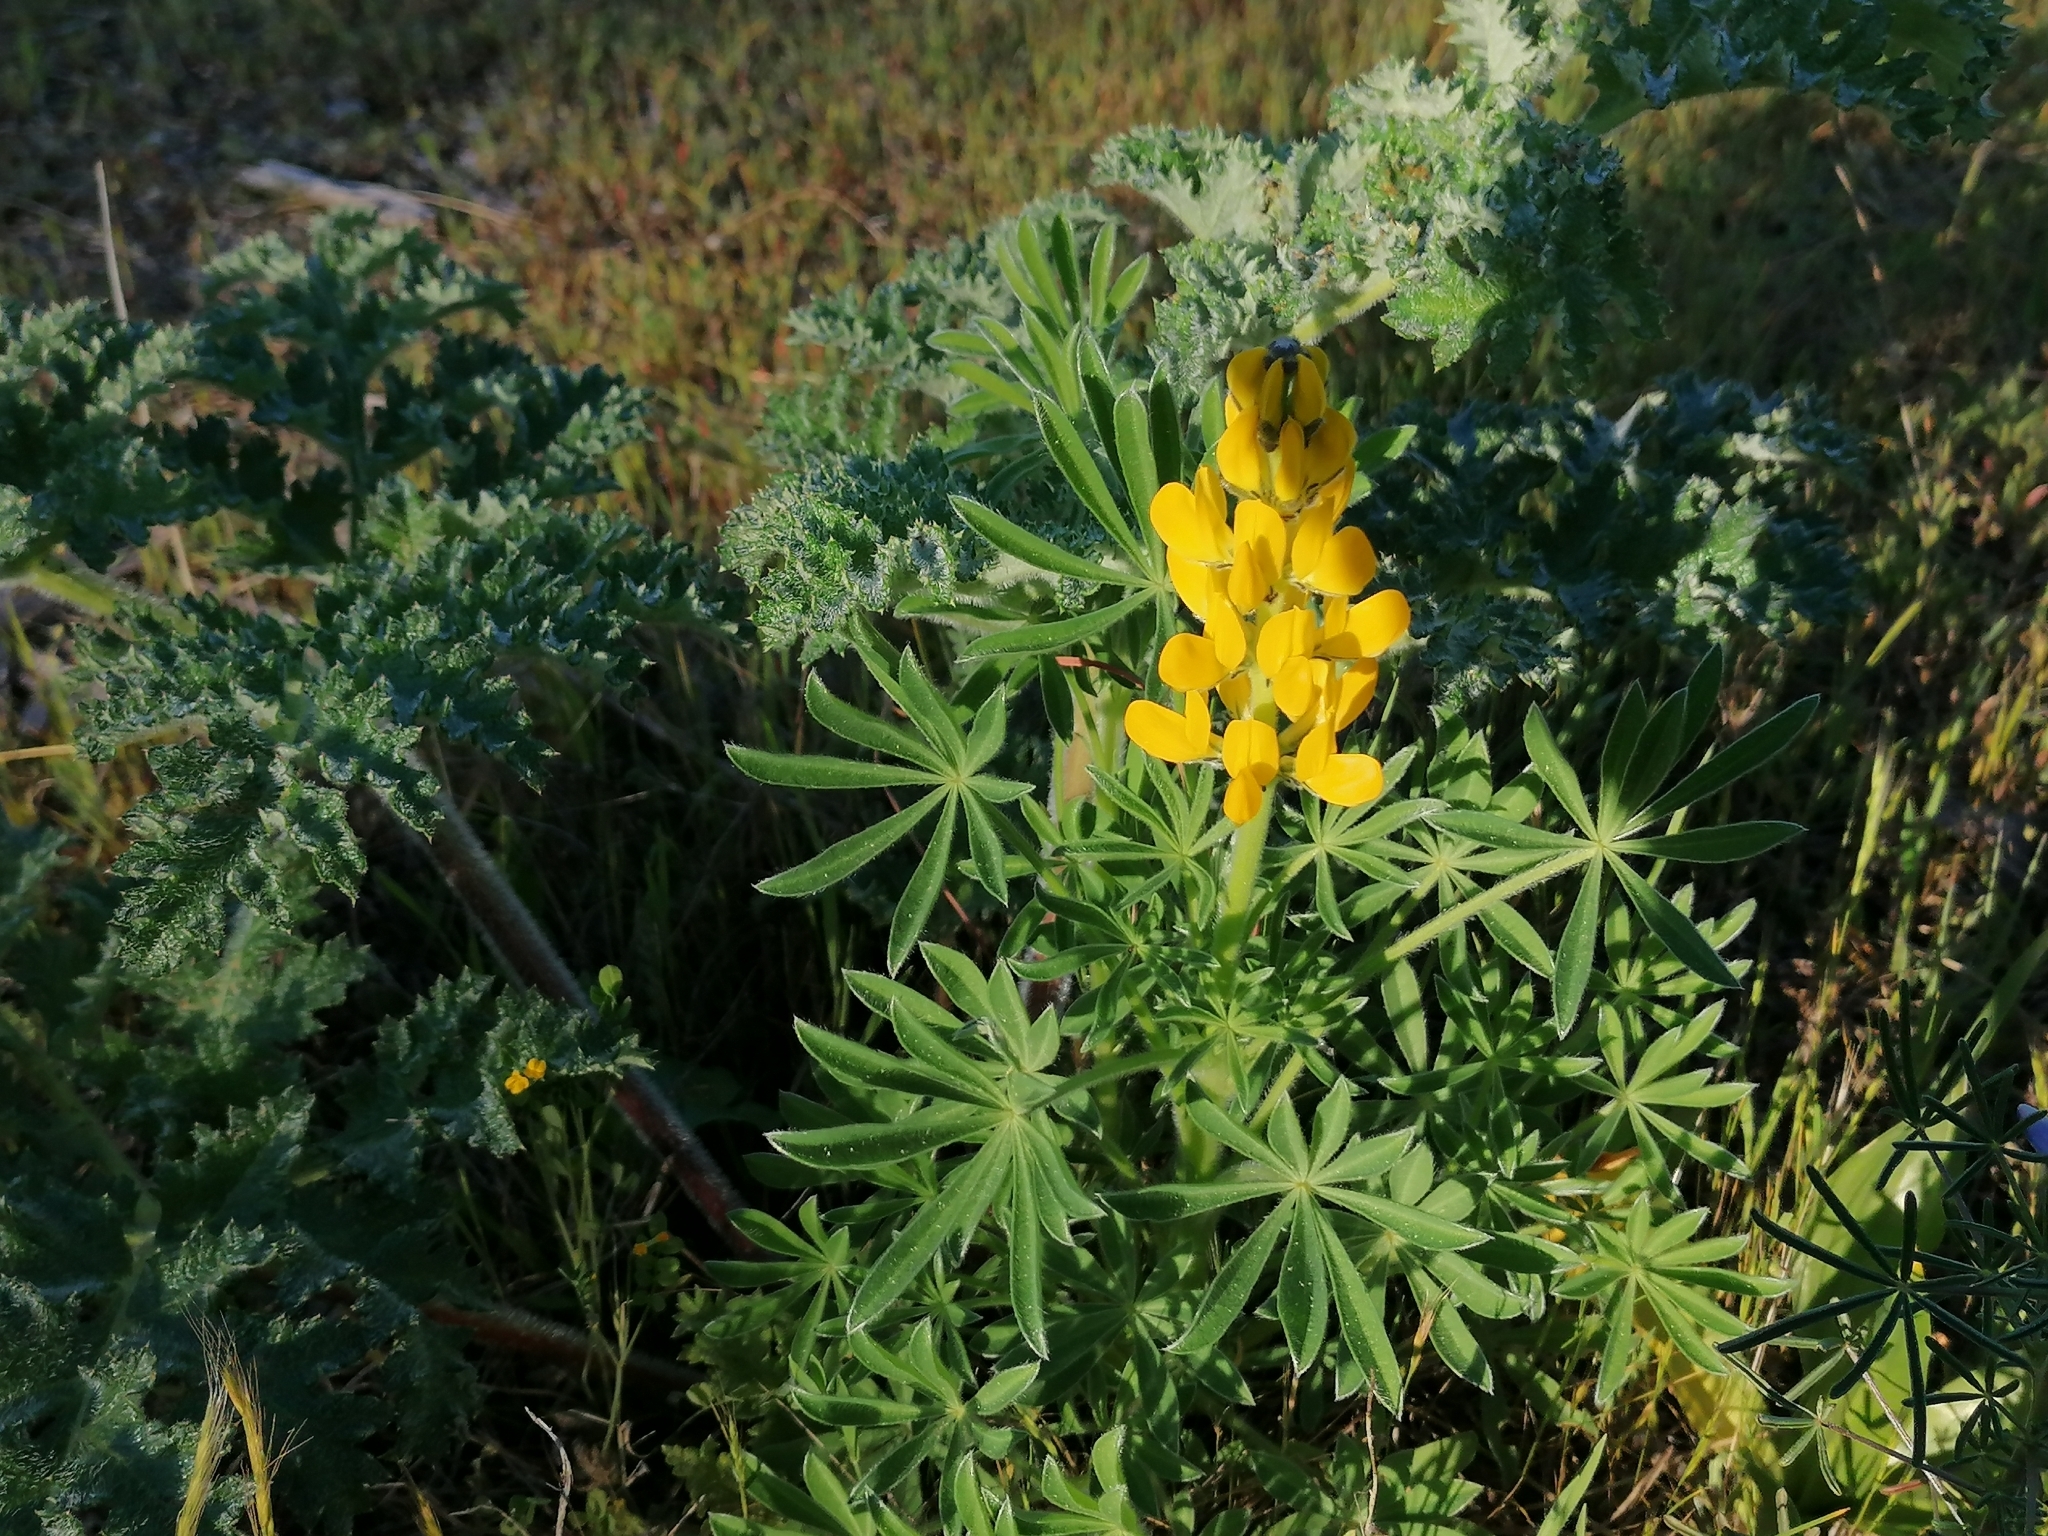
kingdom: Plantae
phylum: Tracheophyta
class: Magnoliopsida
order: Fabales
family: Fabaceae
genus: Lupinus
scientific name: Lupinus luteus
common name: European yellow lupine
